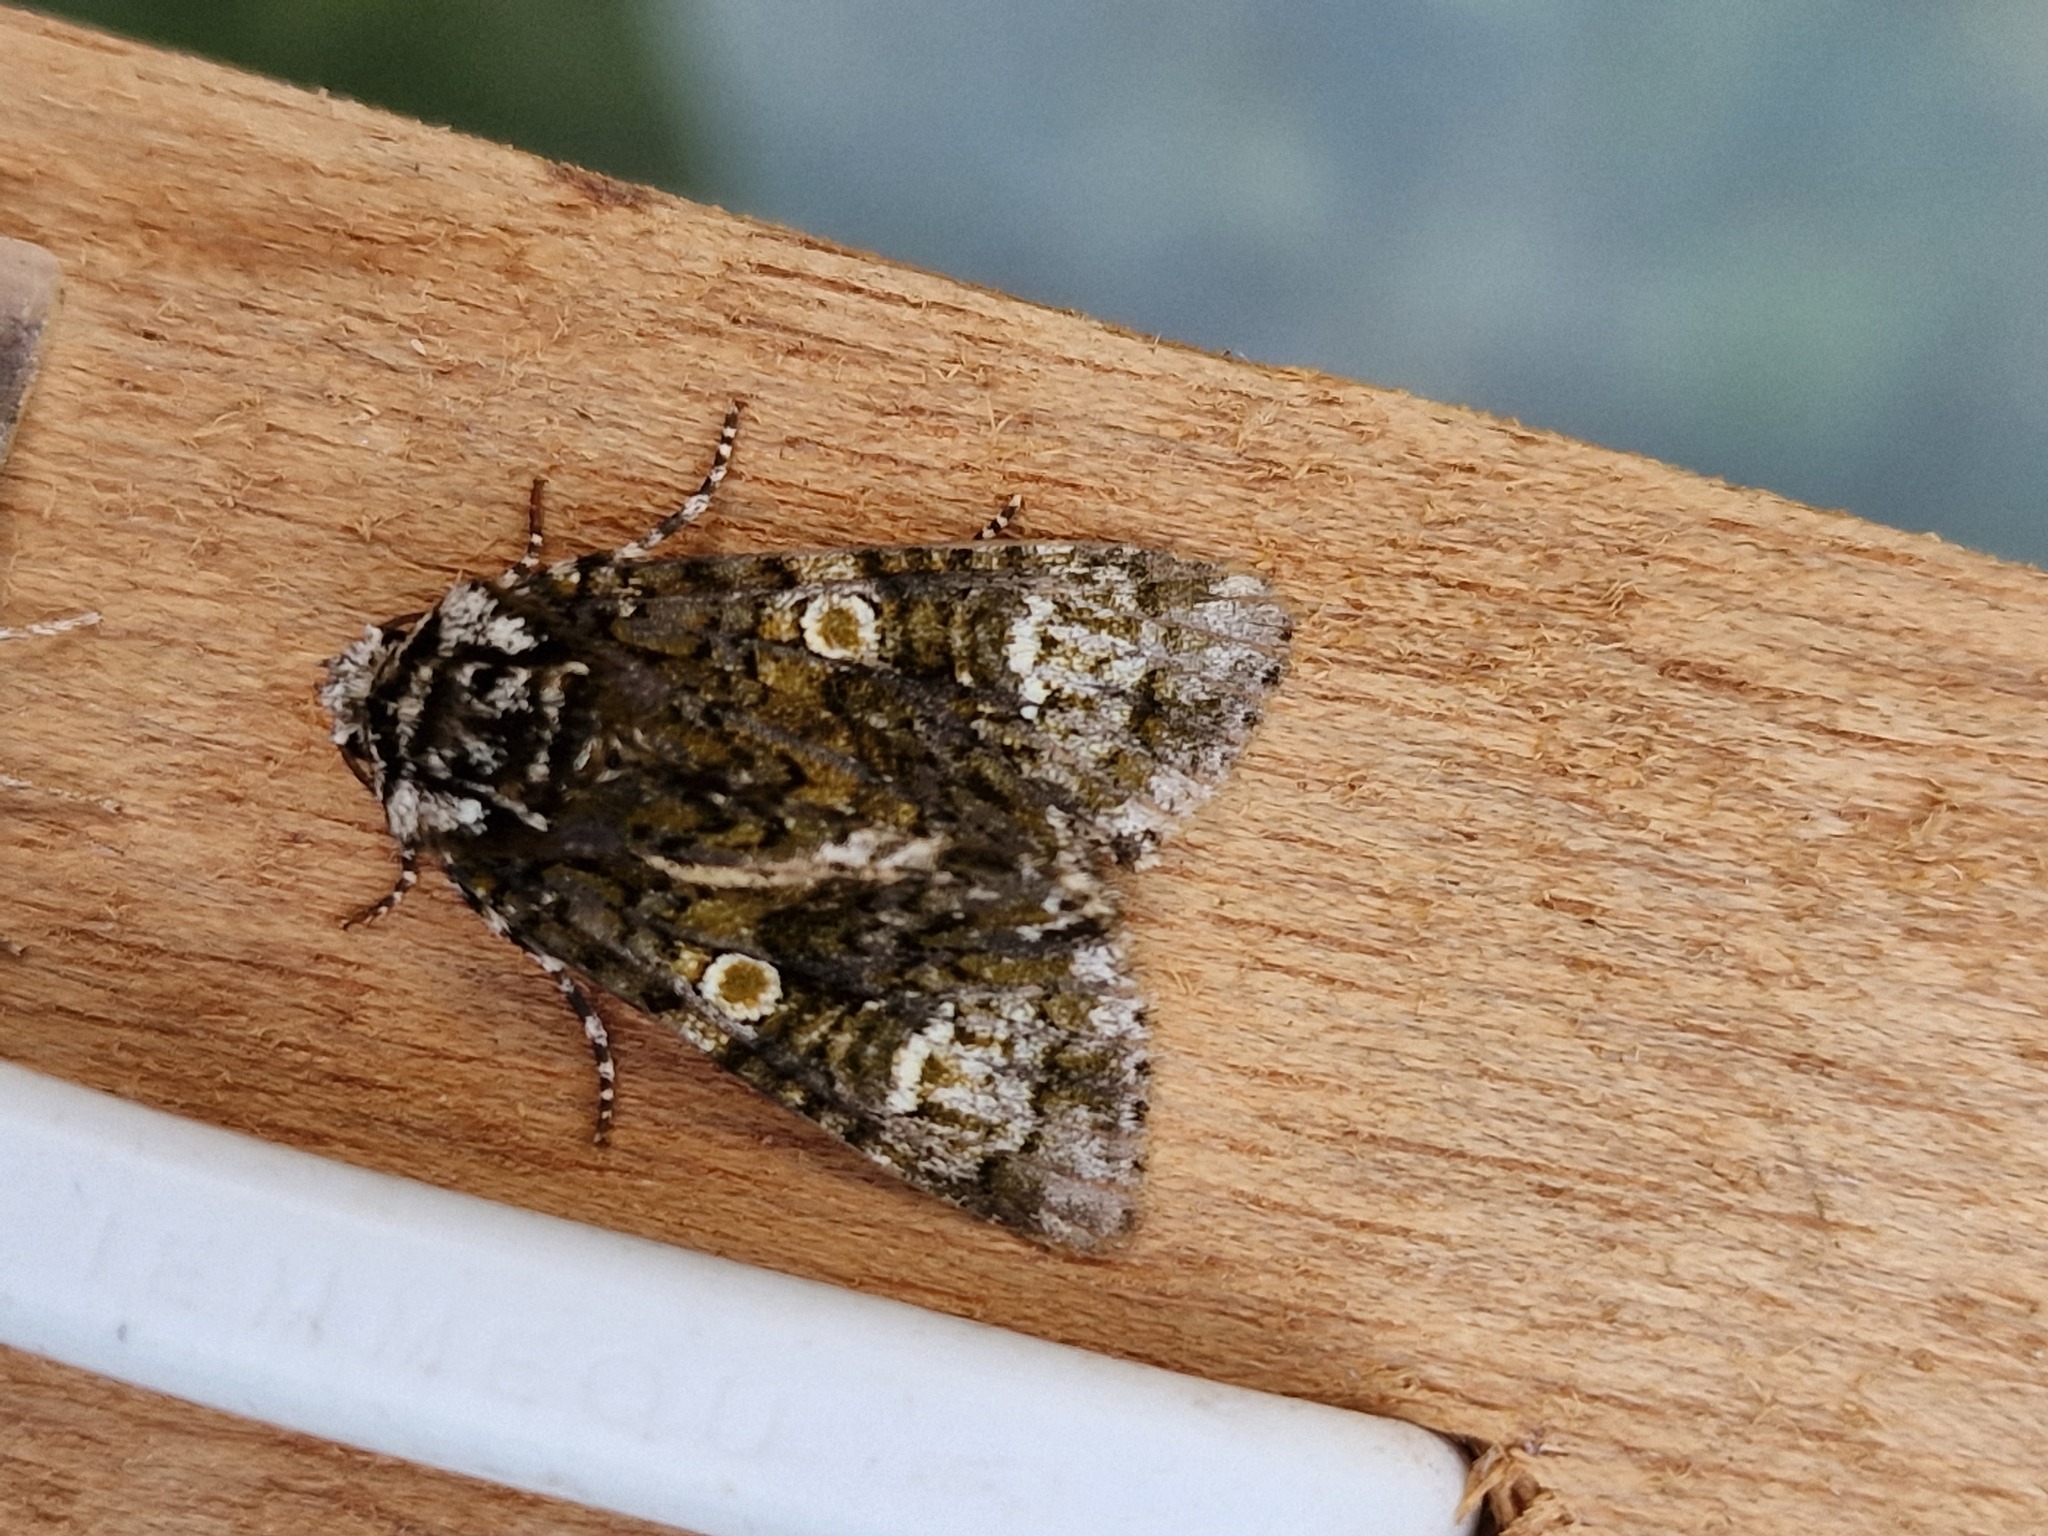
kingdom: Animalia
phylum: Arthropoda
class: Insecta
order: Lepidoptera
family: Noctuidae
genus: Craniophora
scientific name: Craniophora ligustri
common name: Coronet
